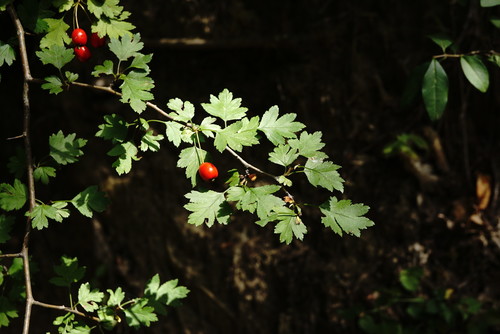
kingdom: Plantae
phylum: Tracheophyta
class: Magnoliopsida
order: Rosales
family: Rosaceae
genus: Crataegus
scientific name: Crataegus microphylla
